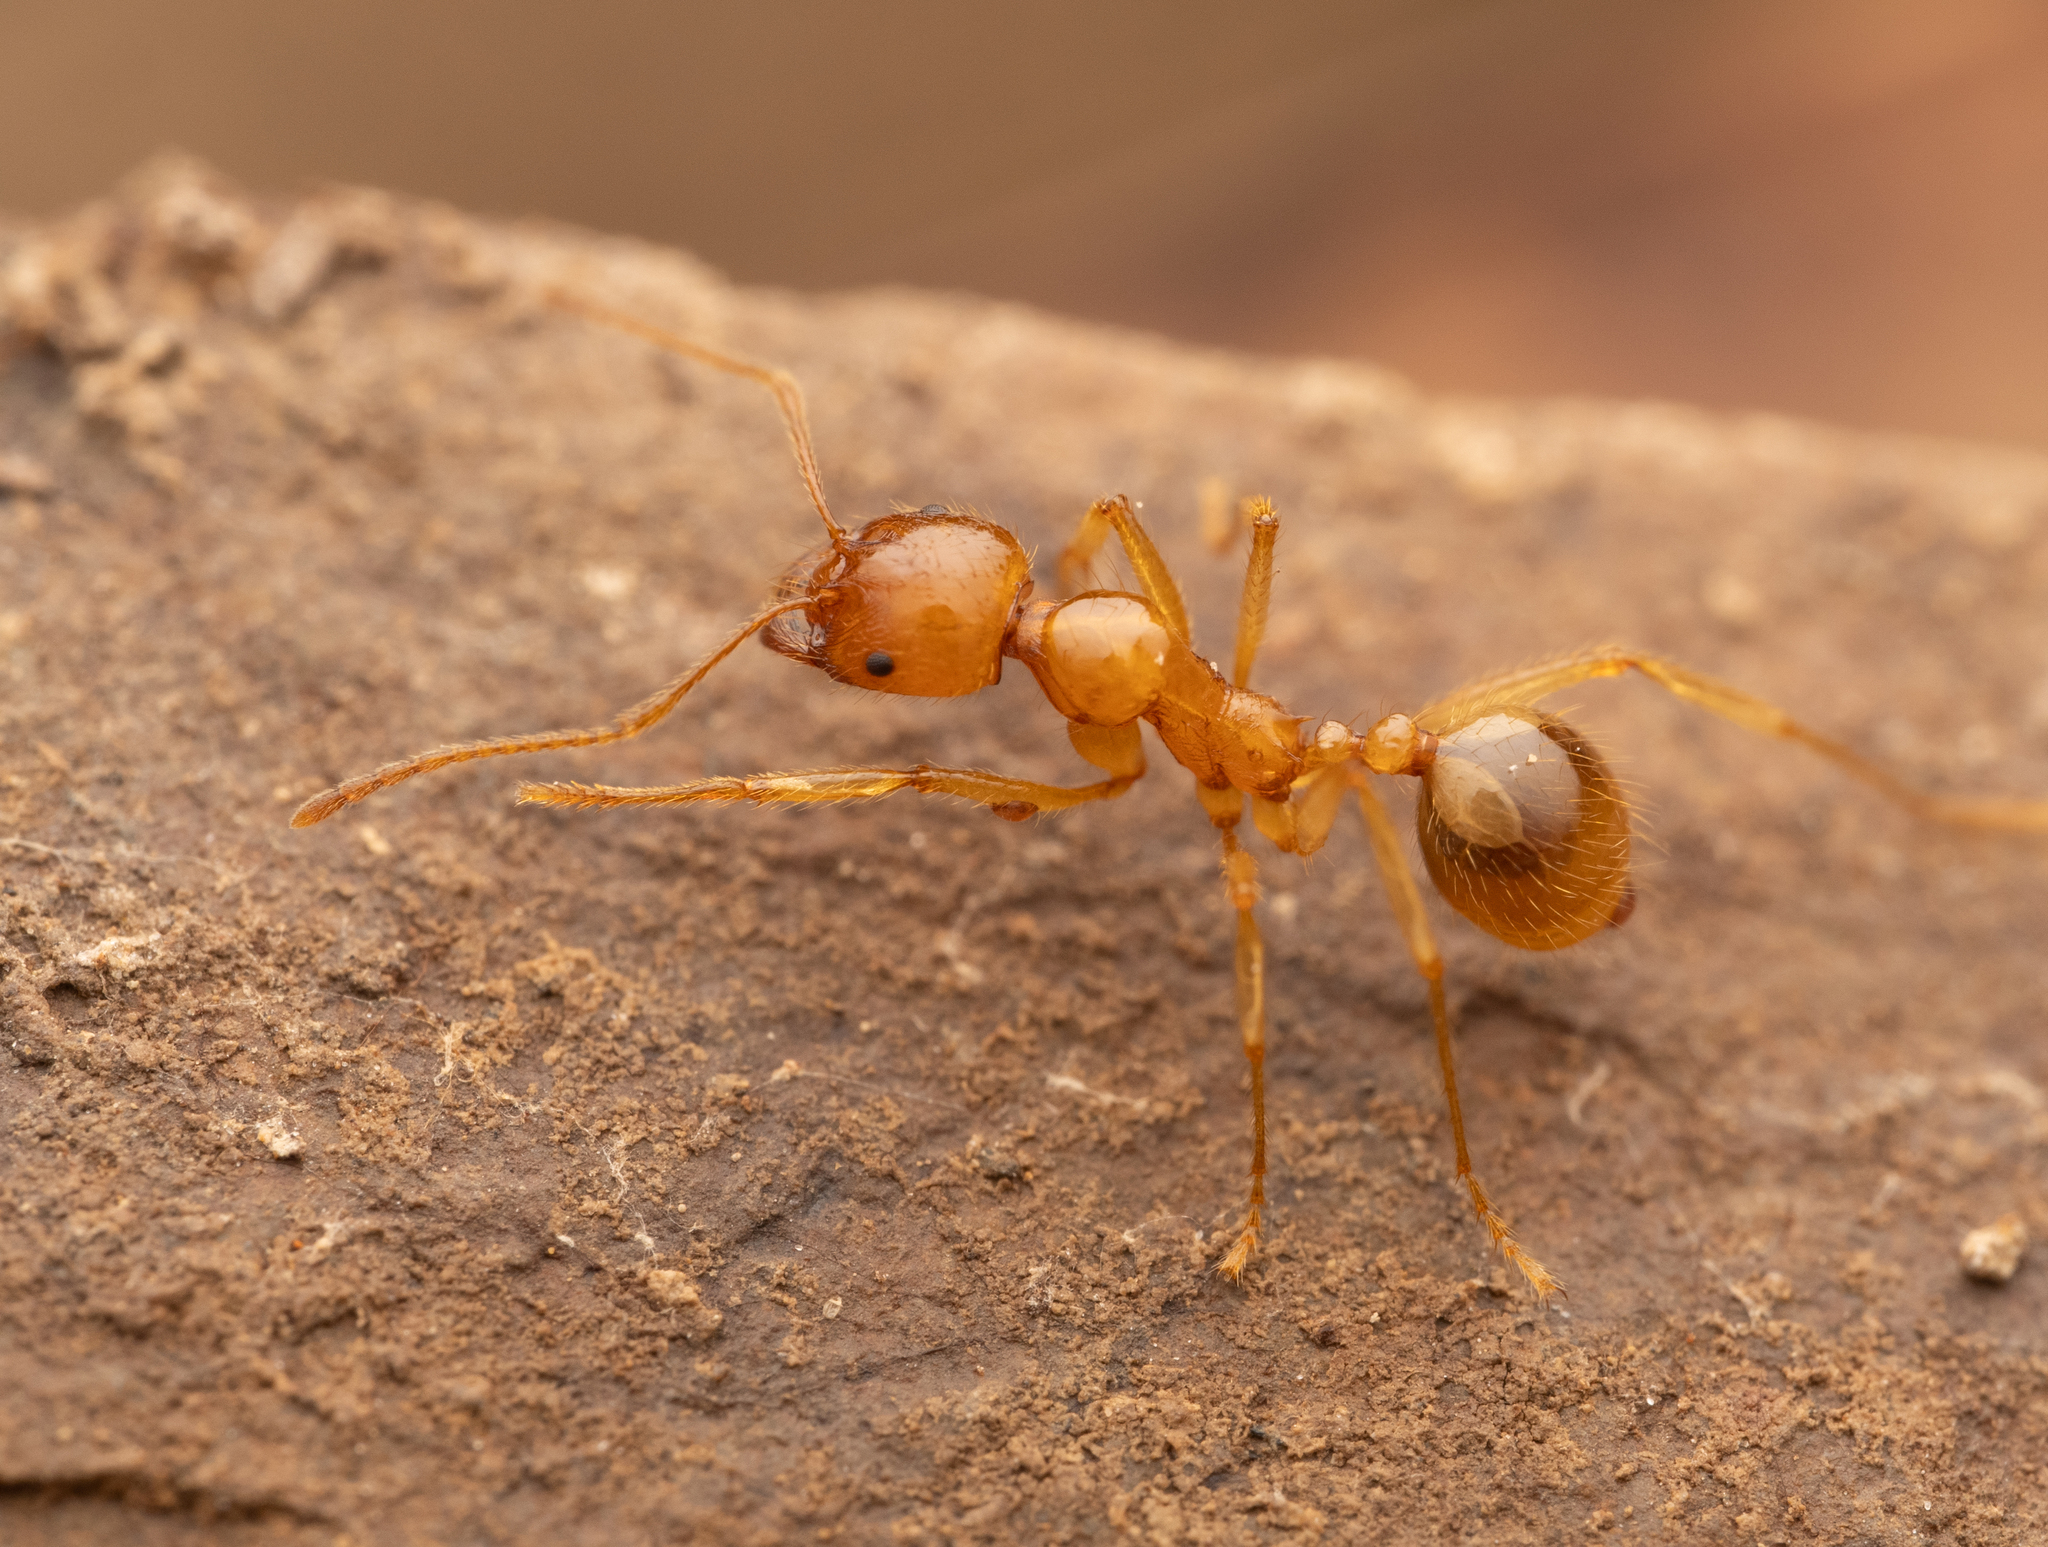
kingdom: Animalia
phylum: Arthropoda
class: Insecta
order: Hymenoptera
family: Formicidae
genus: Aphaenogaster
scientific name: Aphaenogaster pythia
